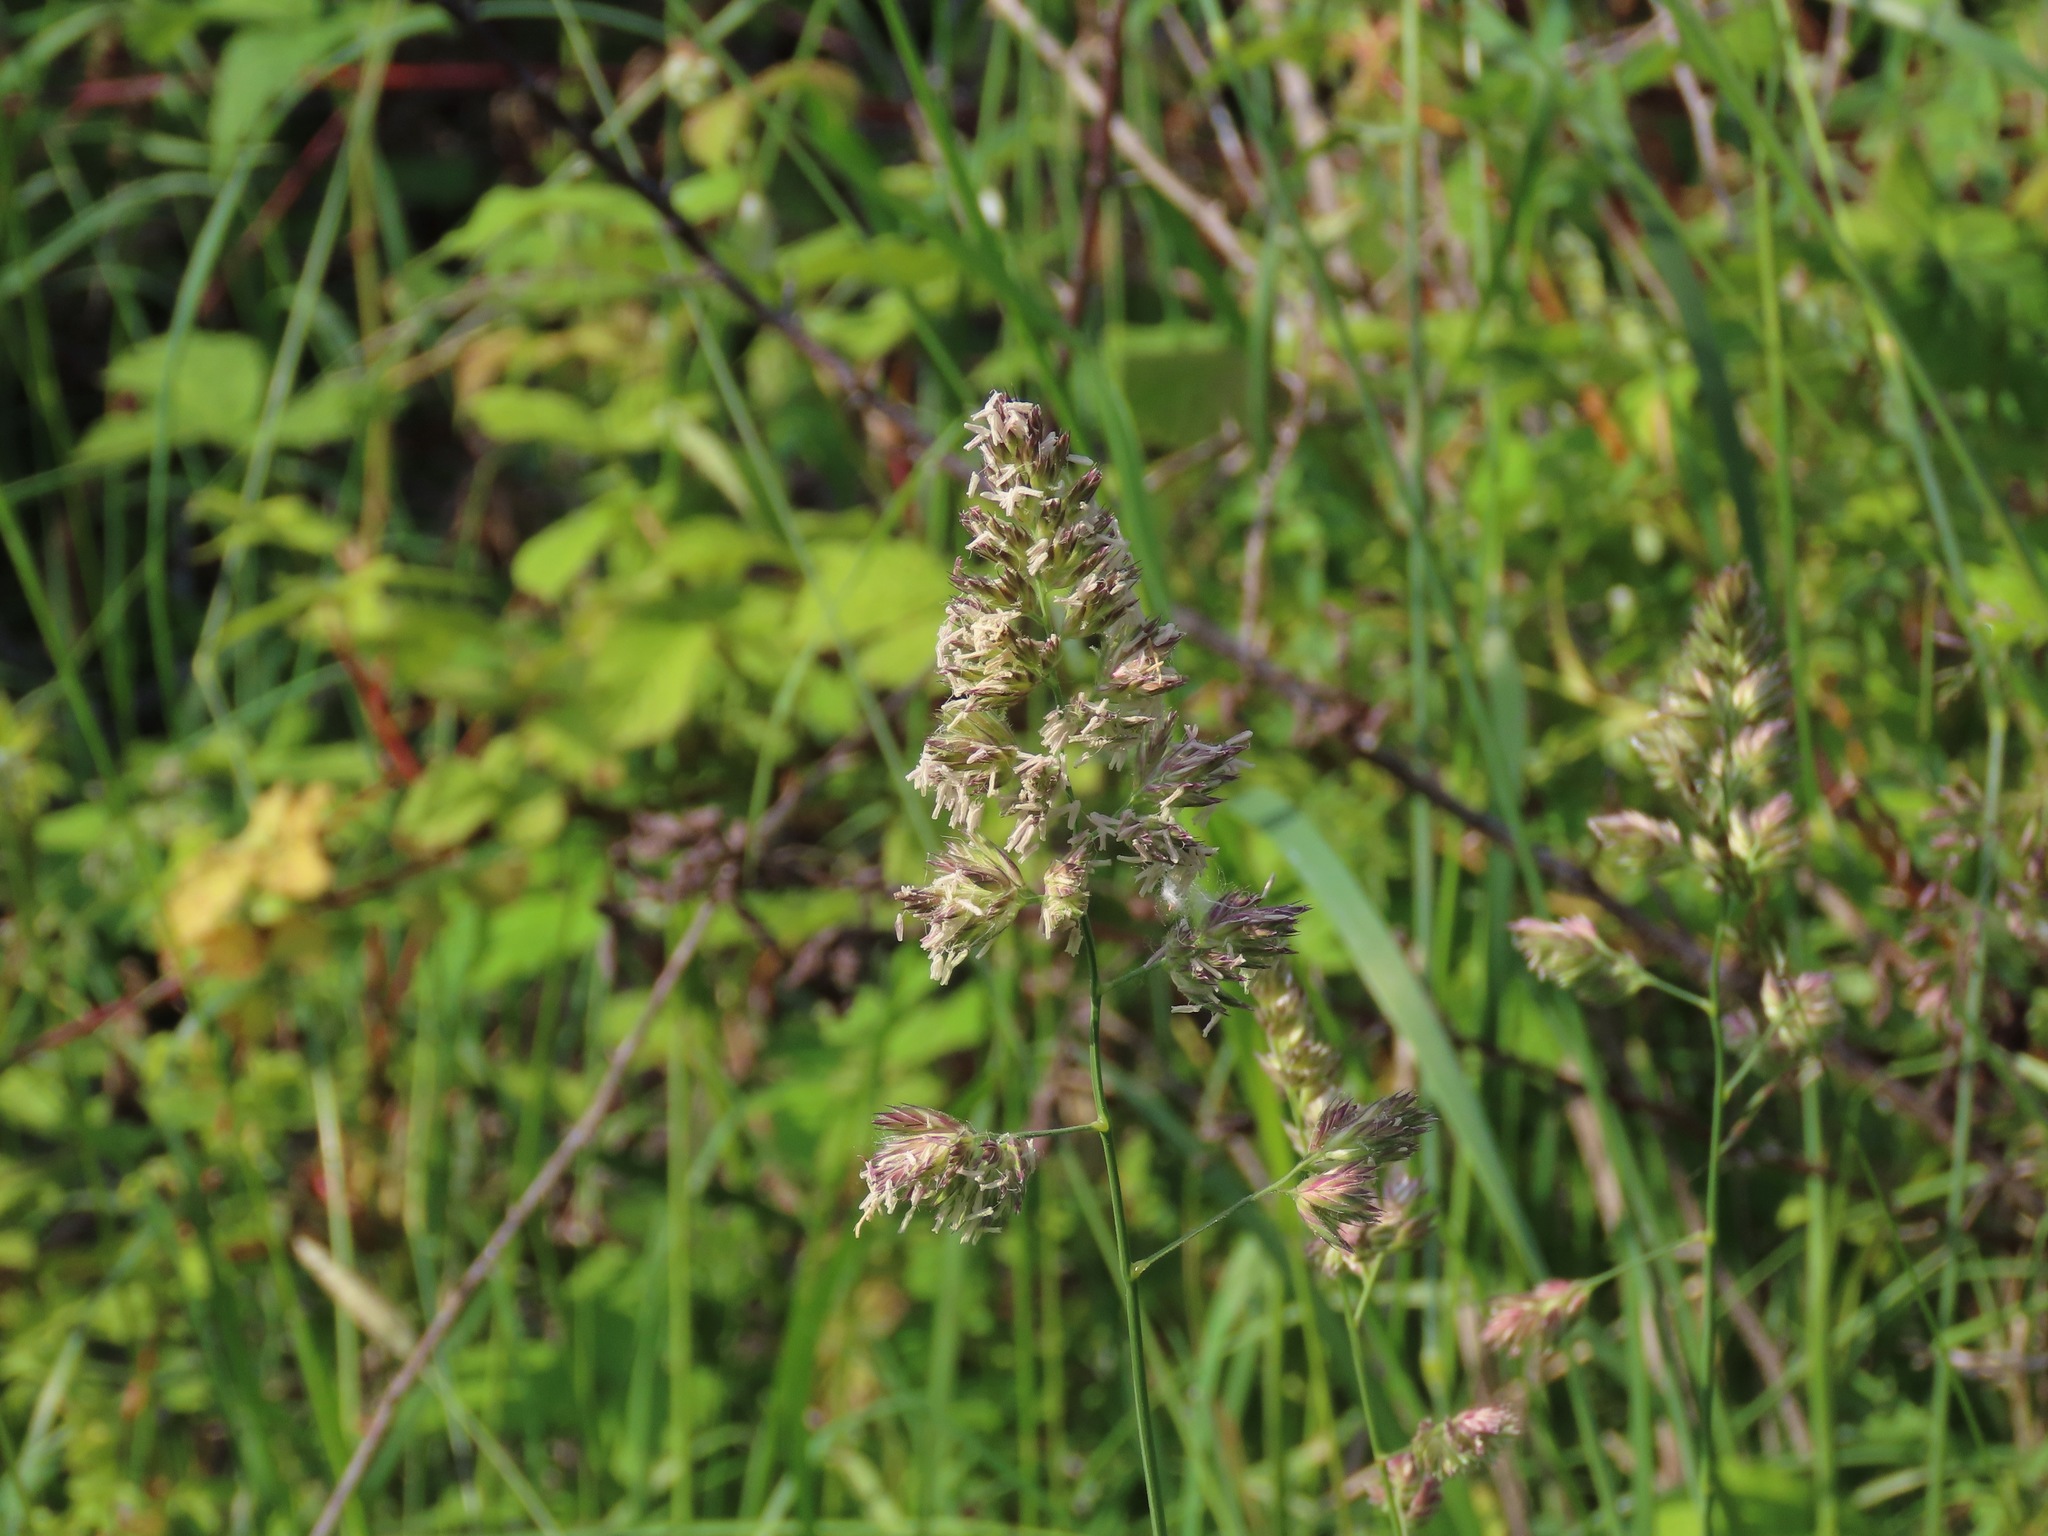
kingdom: Plantae
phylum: Tracheophyta
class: Liliopsida
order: Poales
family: Poaceae
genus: Dactylis
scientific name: Dactylis glomerata
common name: Orchardgrass
